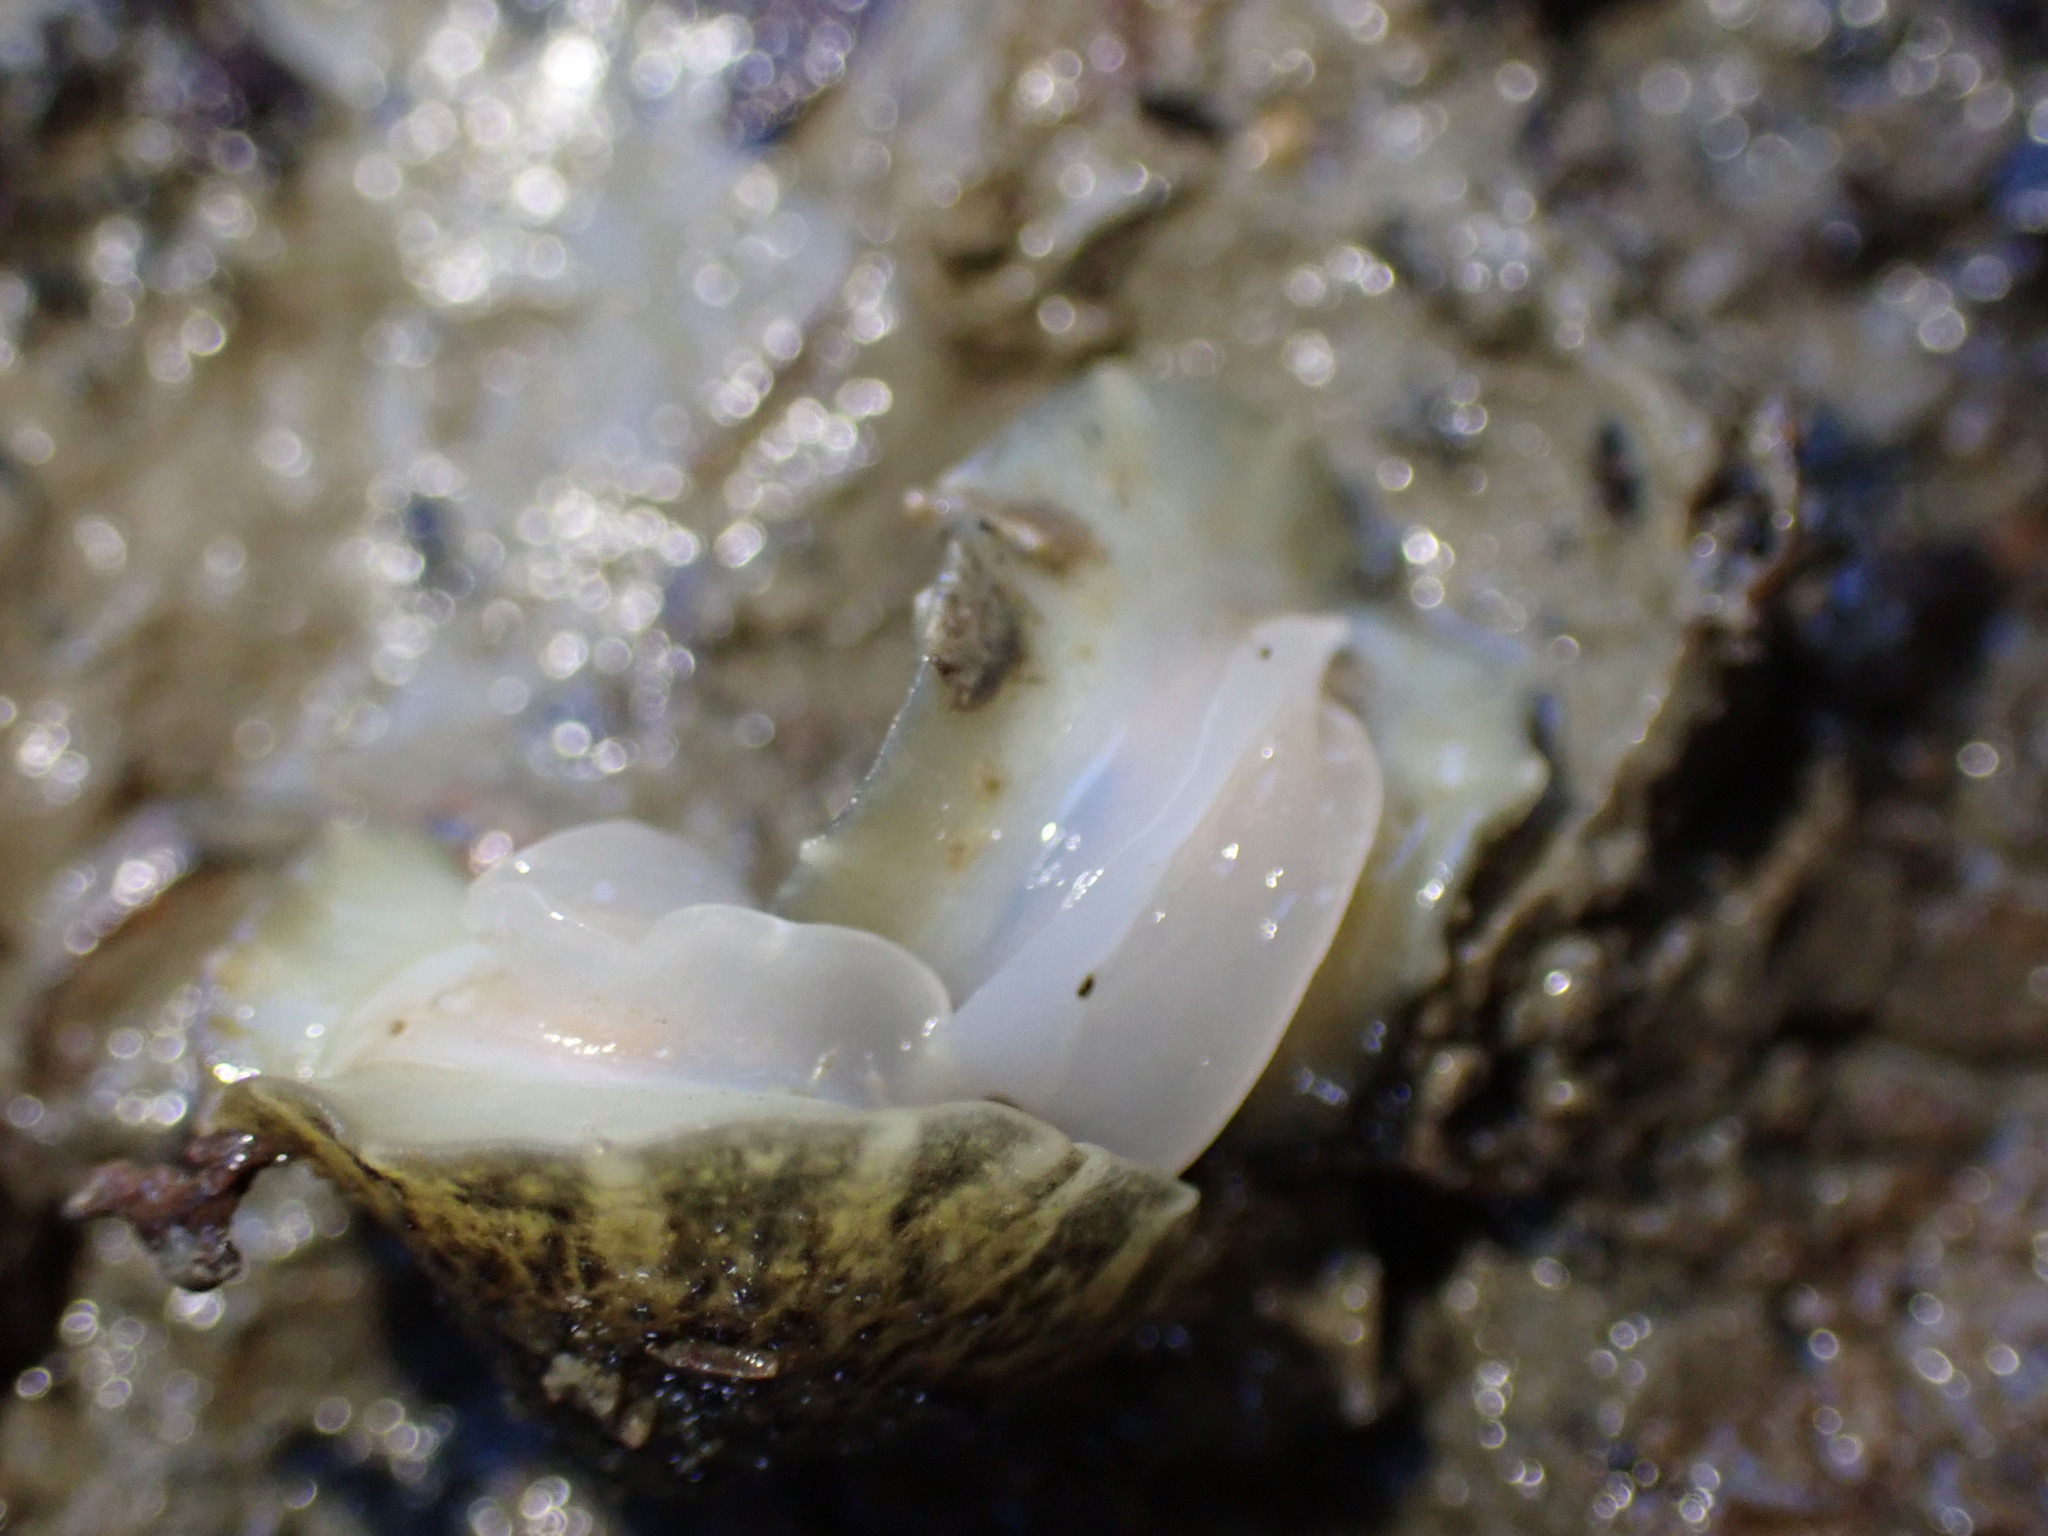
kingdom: Animalia
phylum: Mollusca
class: Gastropoda
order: Systellommatophora
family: Onchidiidae
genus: Onchidella
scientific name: Onchidella nigricans
